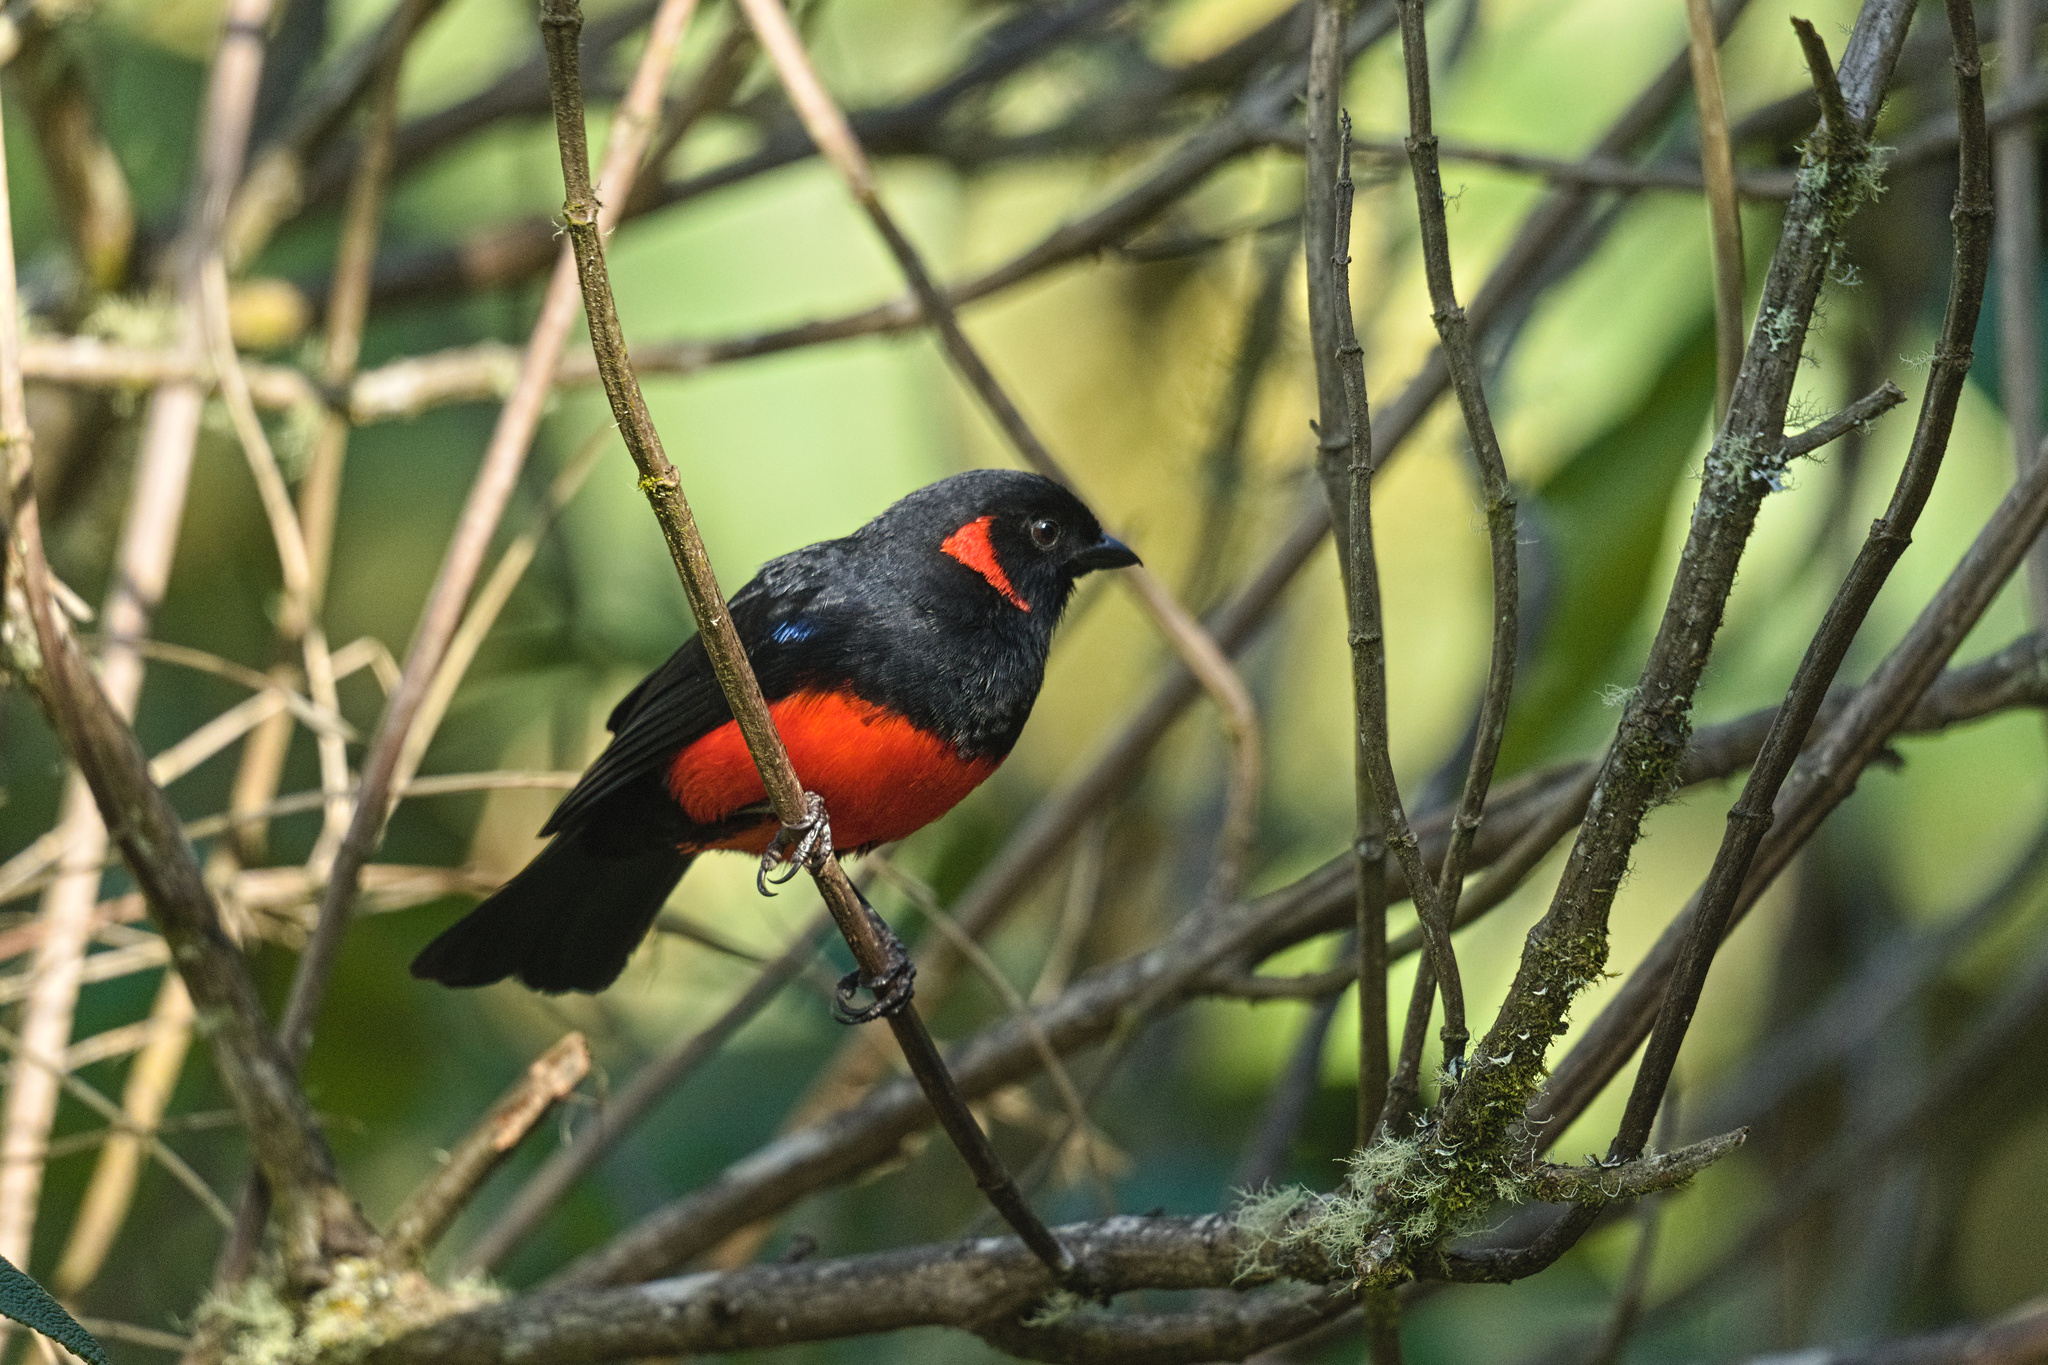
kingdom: Animalia
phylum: Chordata
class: Aves
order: Passeriformes
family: Thraupidae
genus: Anisognathus
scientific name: Anisognathus igniventris
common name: Scarlet-bellied mountain tanager
